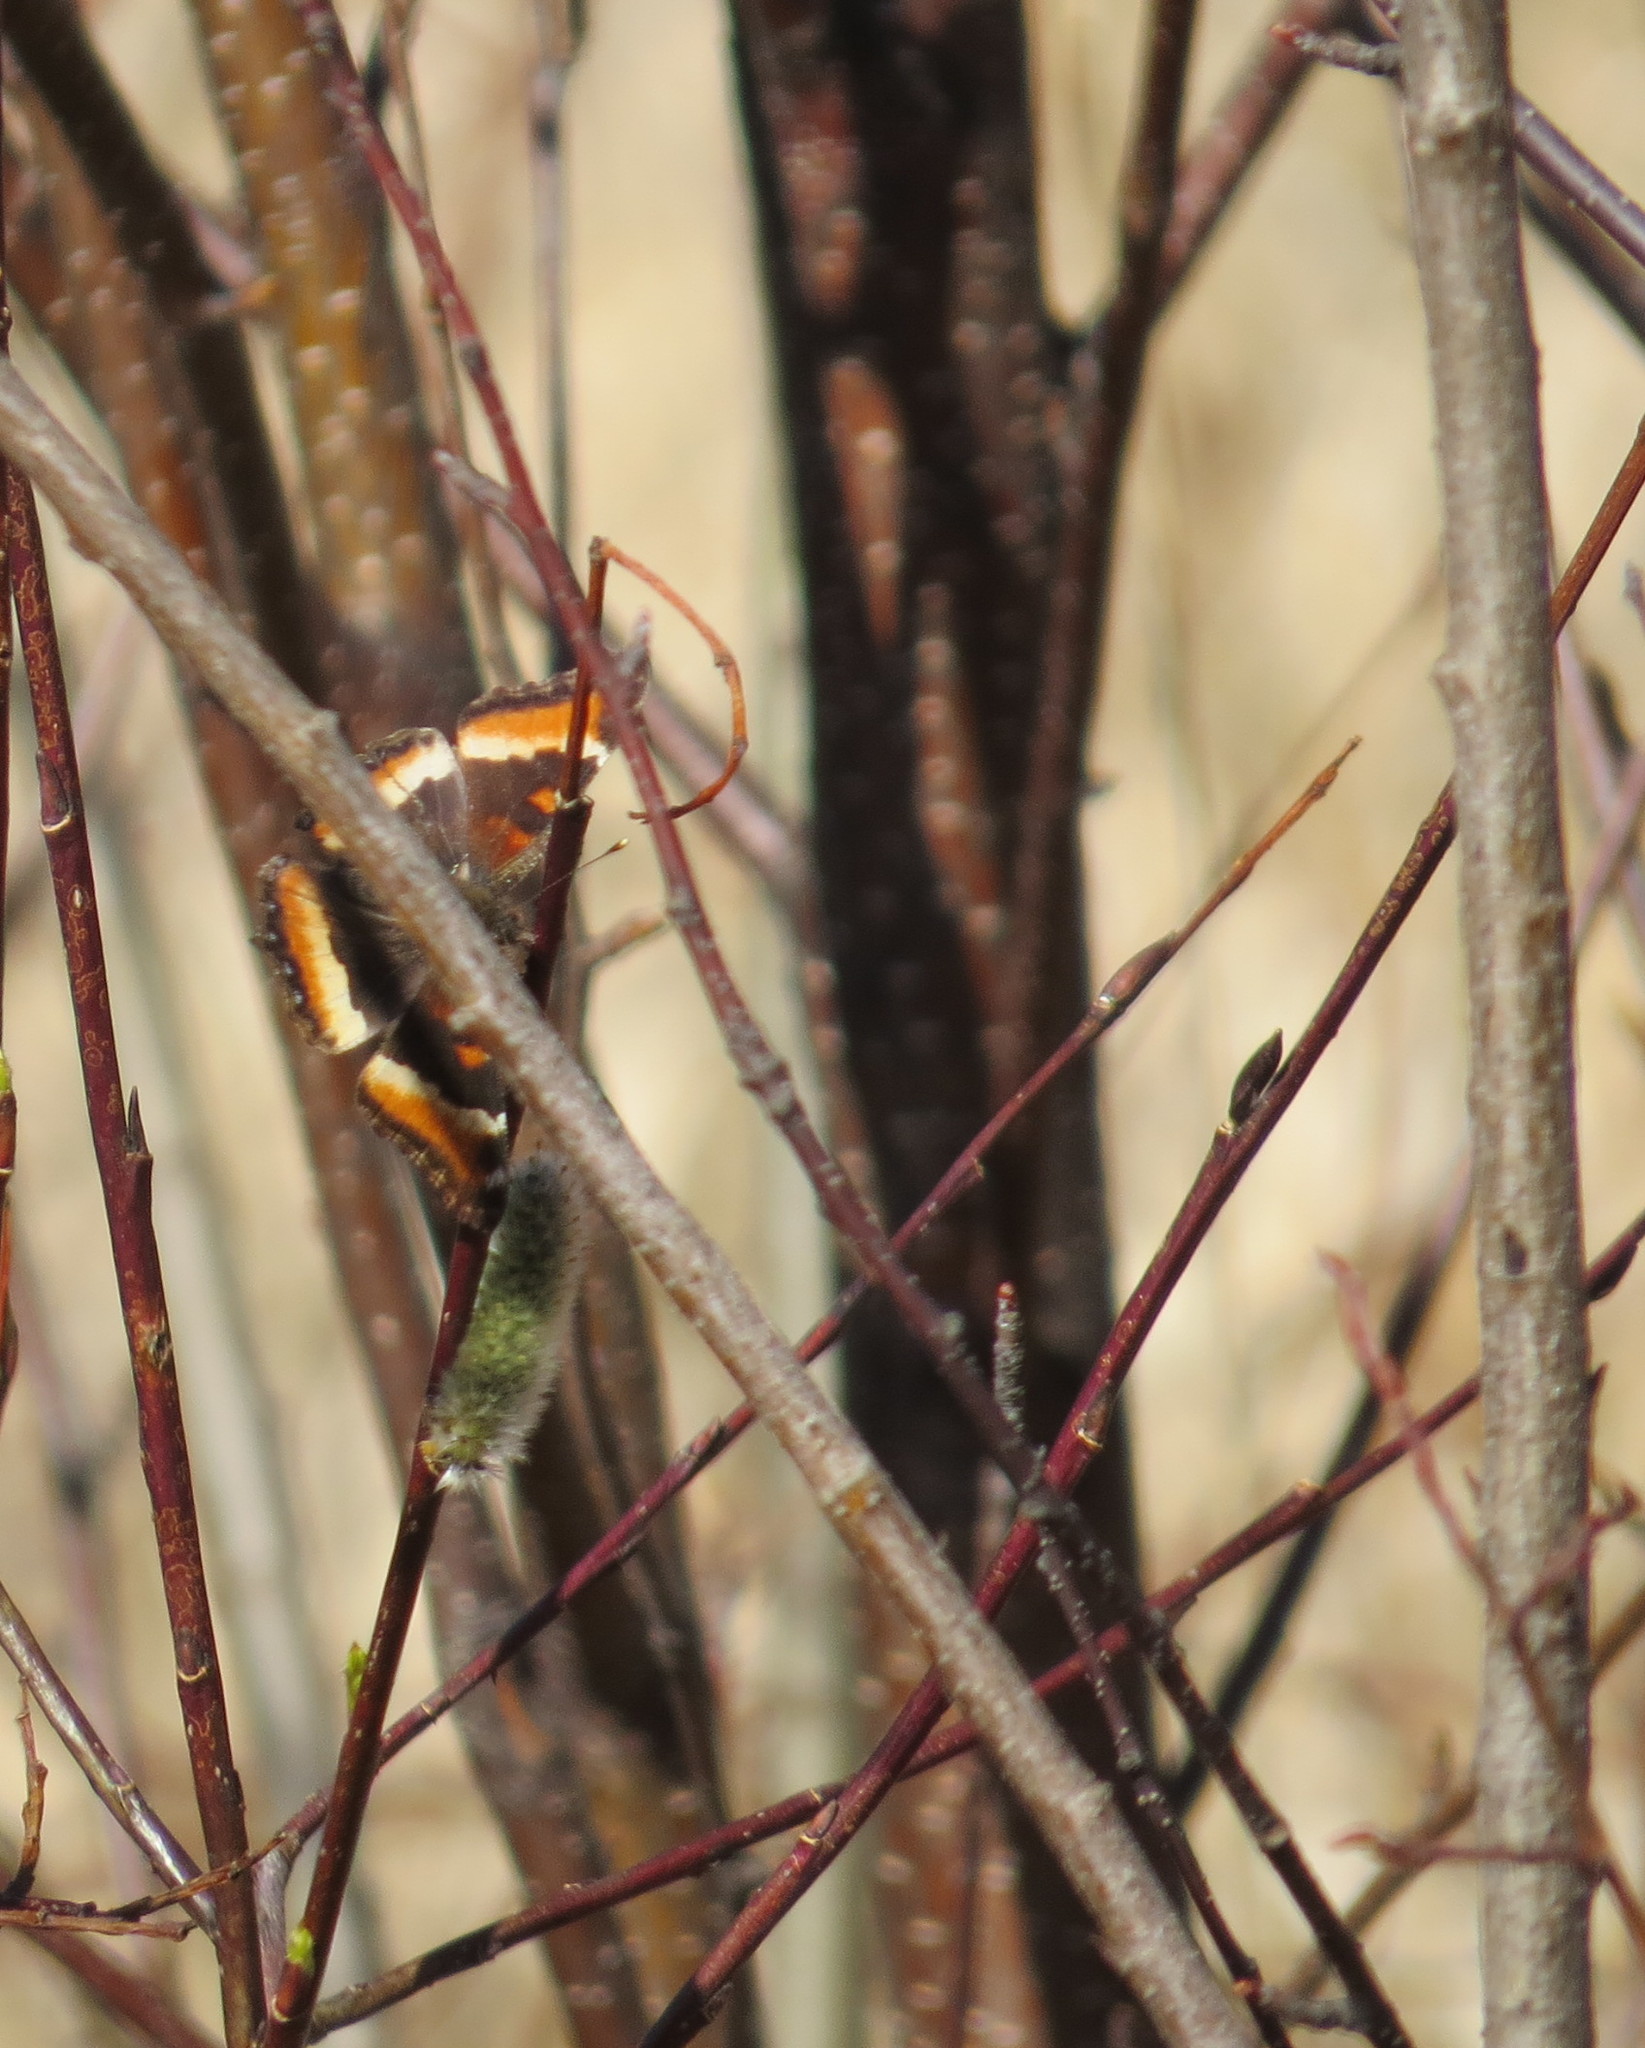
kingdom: Animalia
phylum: Arthropoda
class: Insecta
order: Lepidoptera
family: Nymphalidae
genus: Aglais
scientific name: Aglais milberti
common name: Milbert's tortoiseshell
